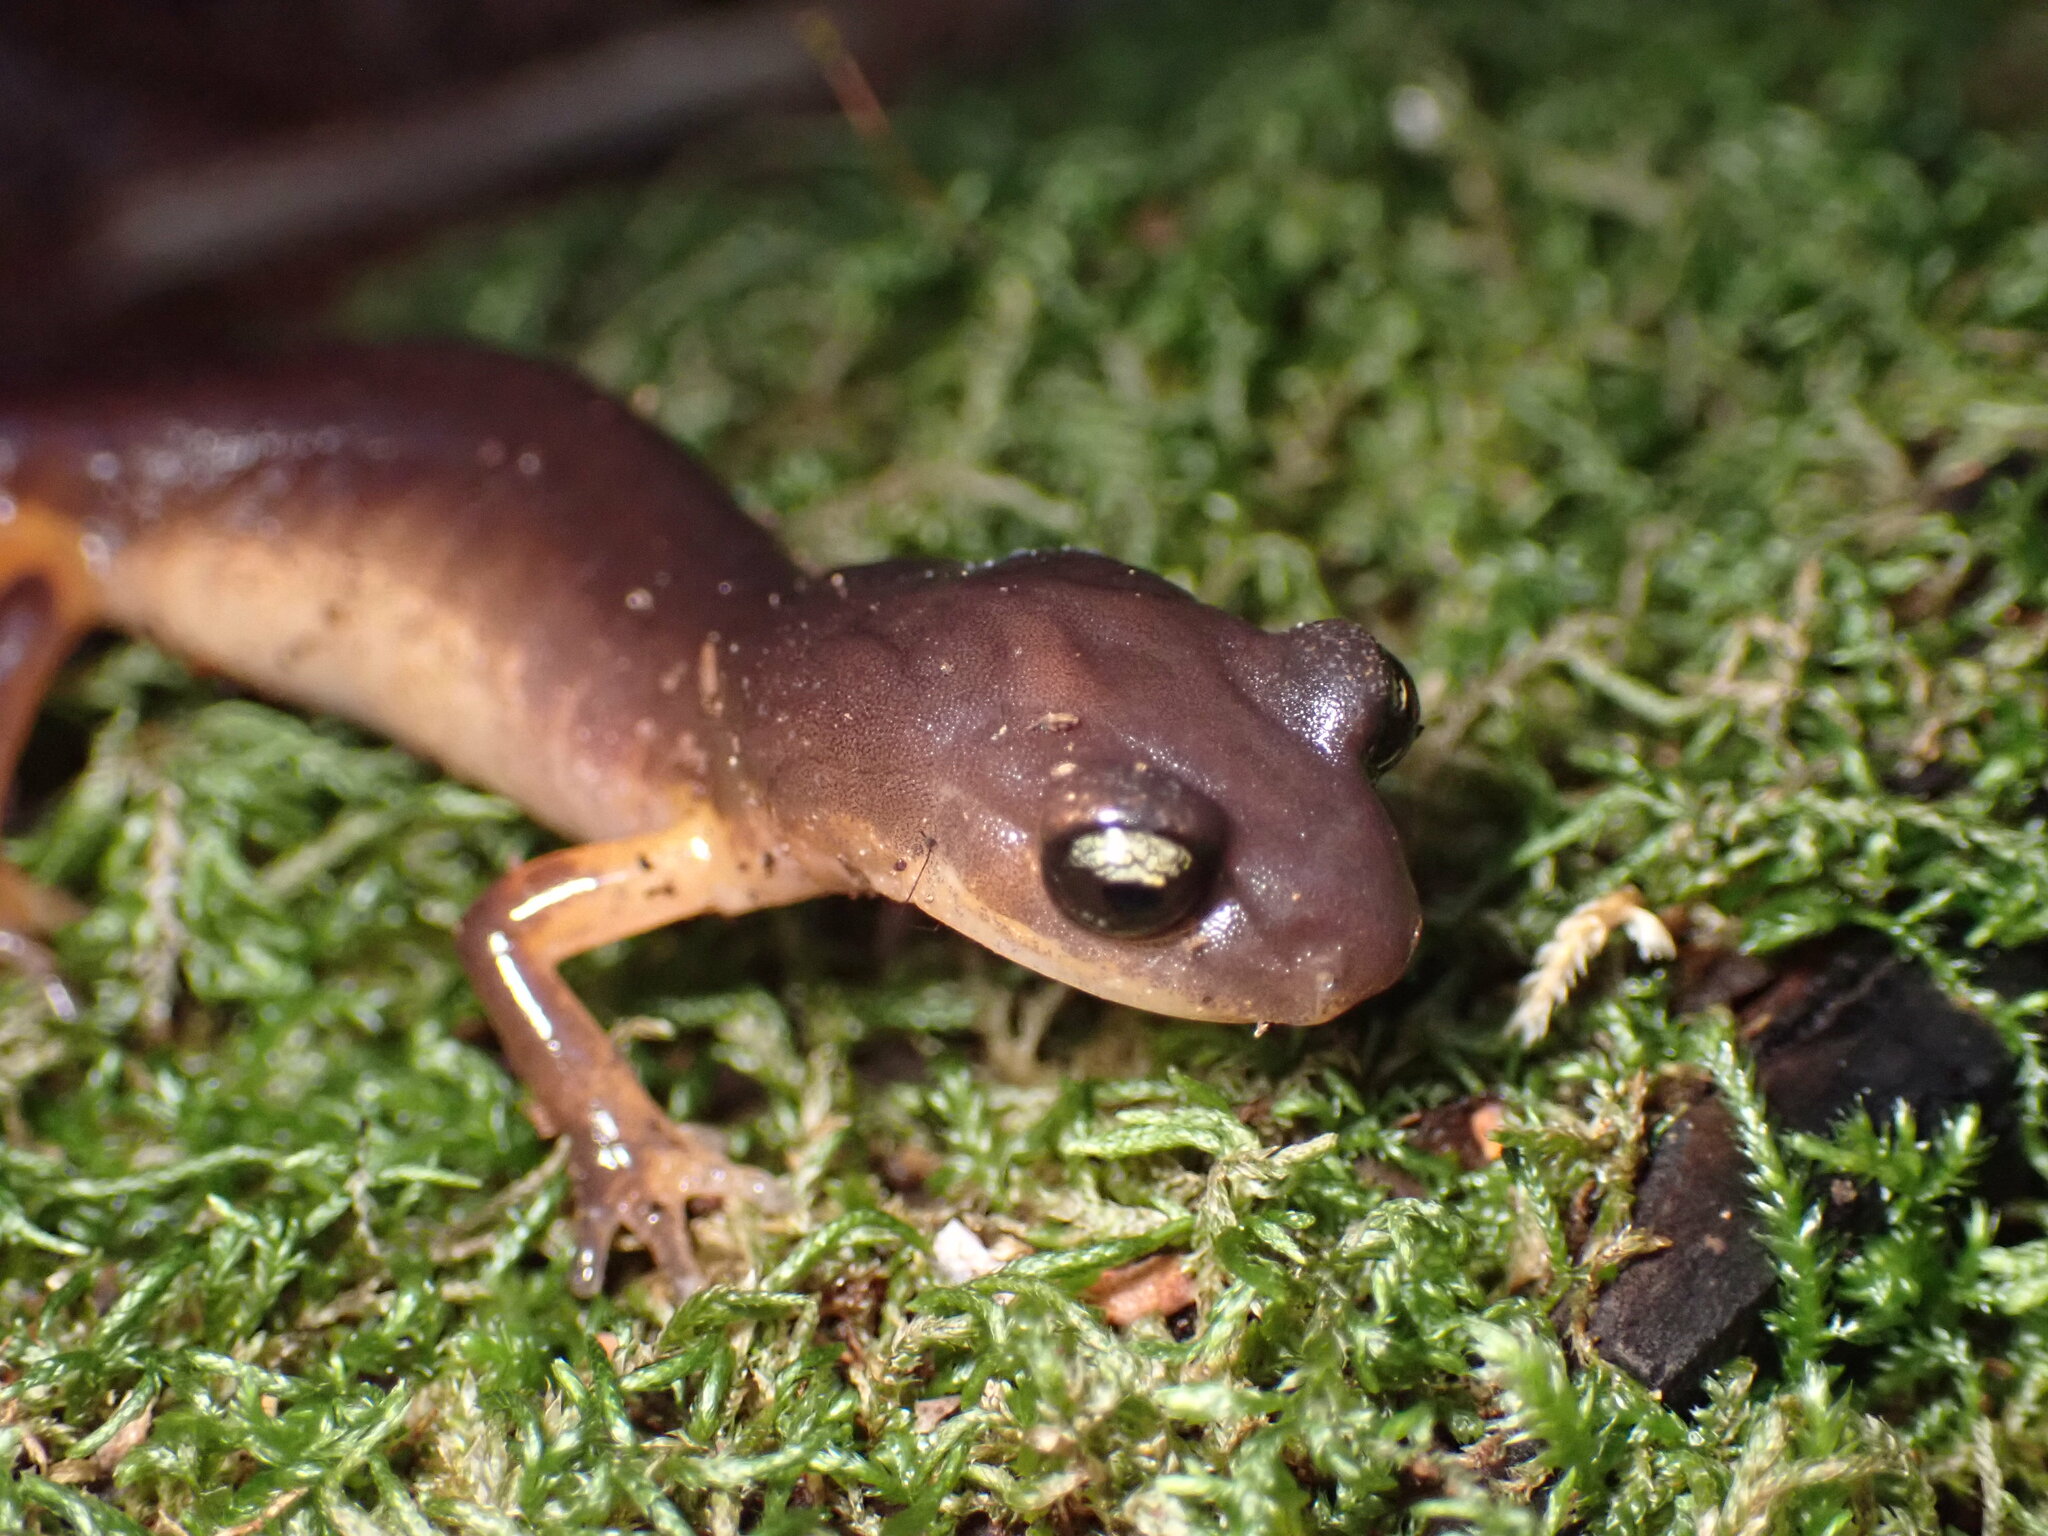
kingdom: Animalia
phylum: Chordata
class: Amphibia
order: Caudata
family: Plethodontidae
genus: Ensatina
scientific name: Ensatina eschscholtzii
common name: Ensatina
